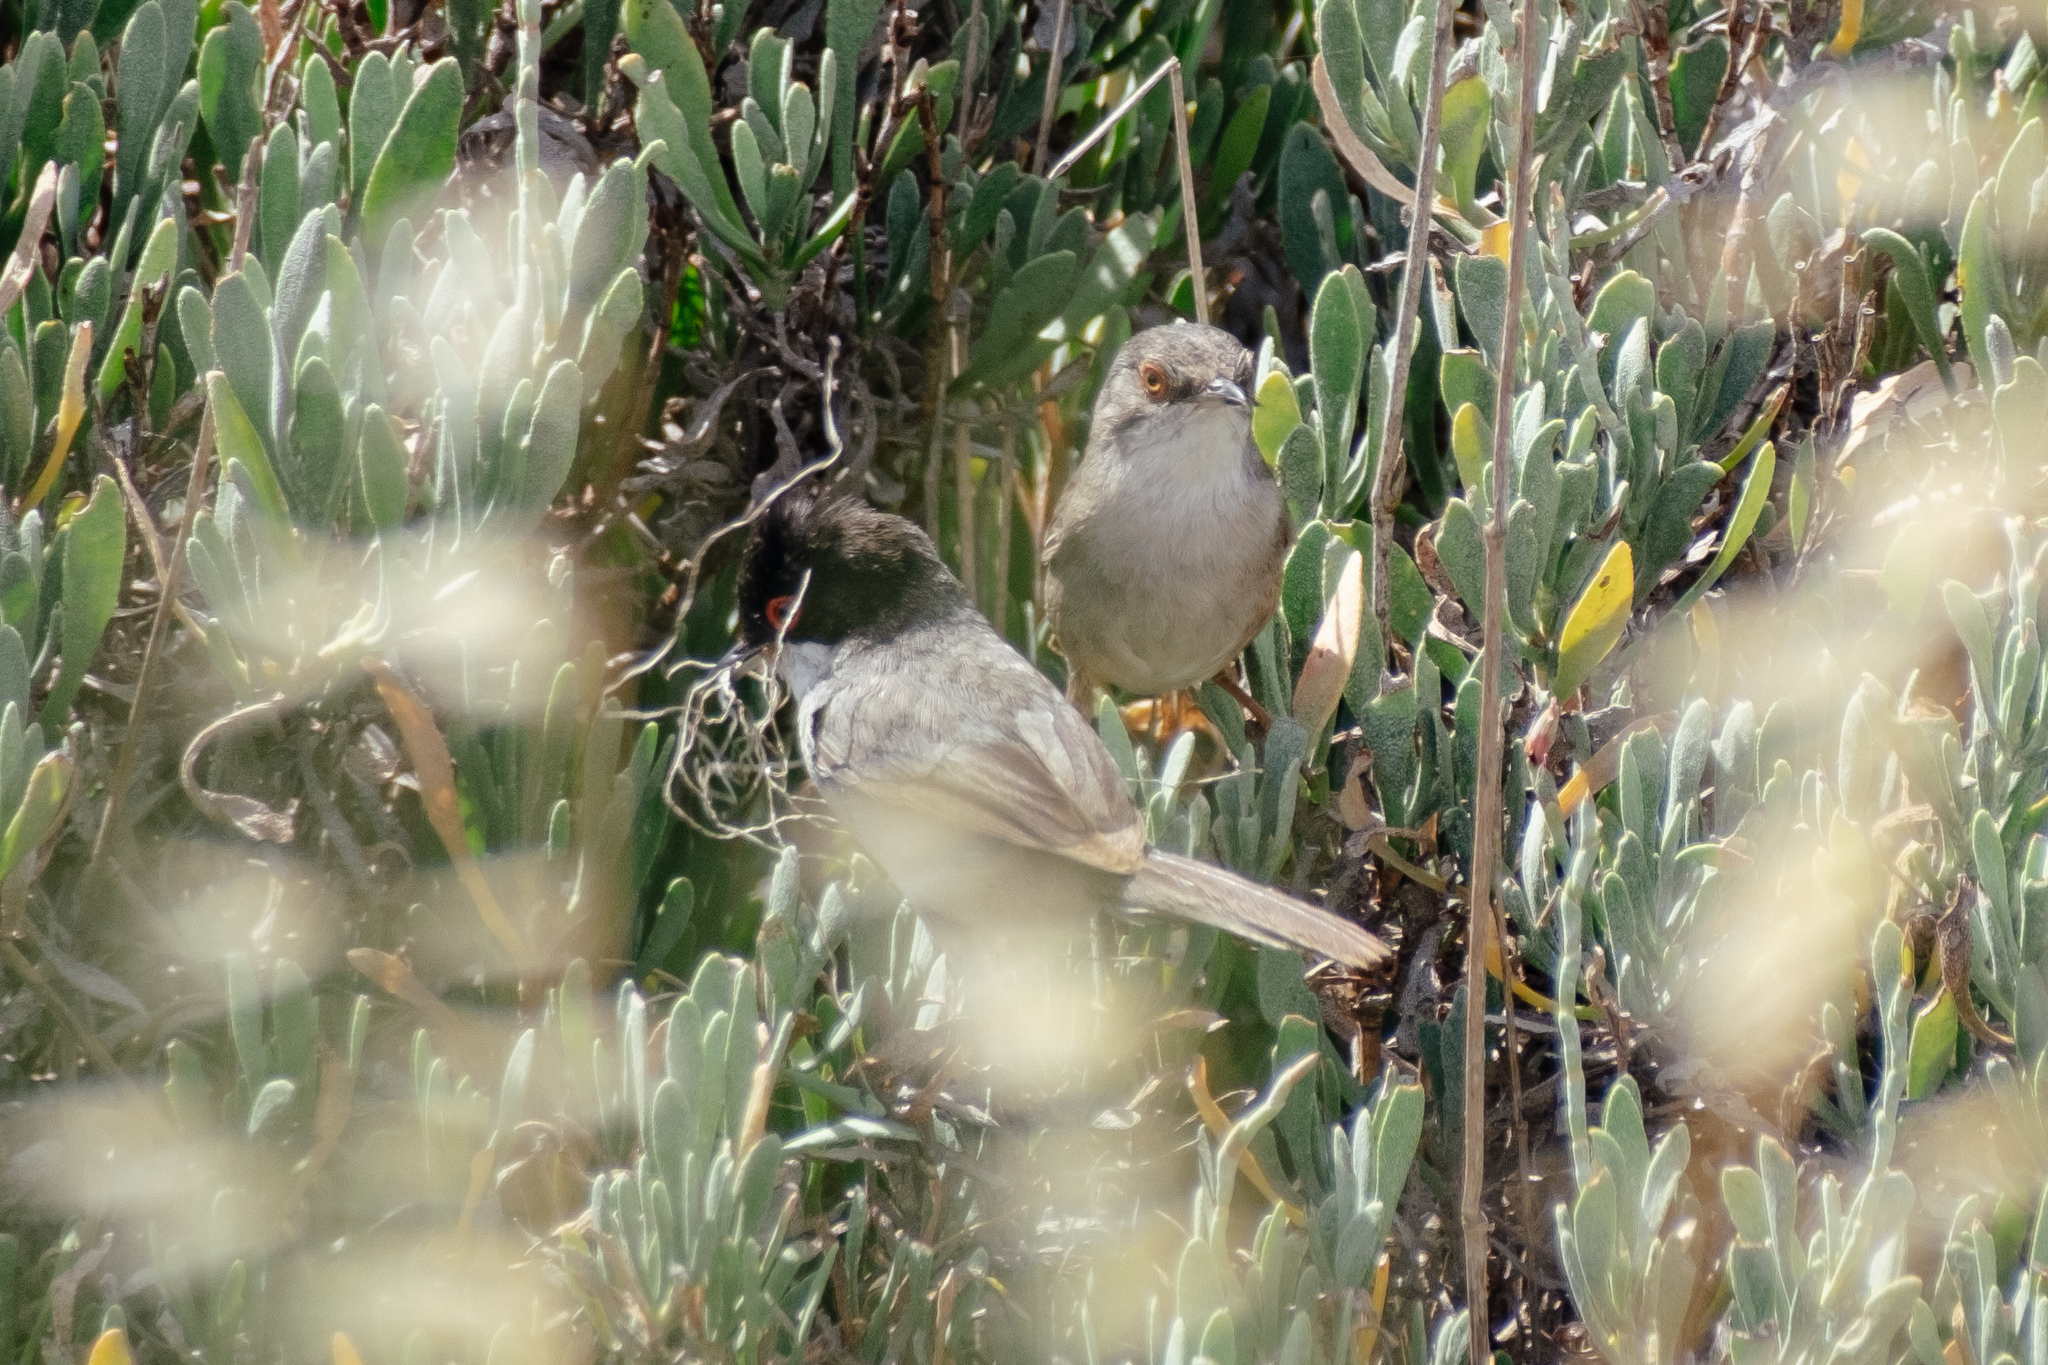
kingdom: Animalia
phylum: Chordata
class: Aves
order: Passeriformes
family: Sylviidae
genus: Curruca
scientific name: Curruca melanocephala
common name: Sardinian warbler
